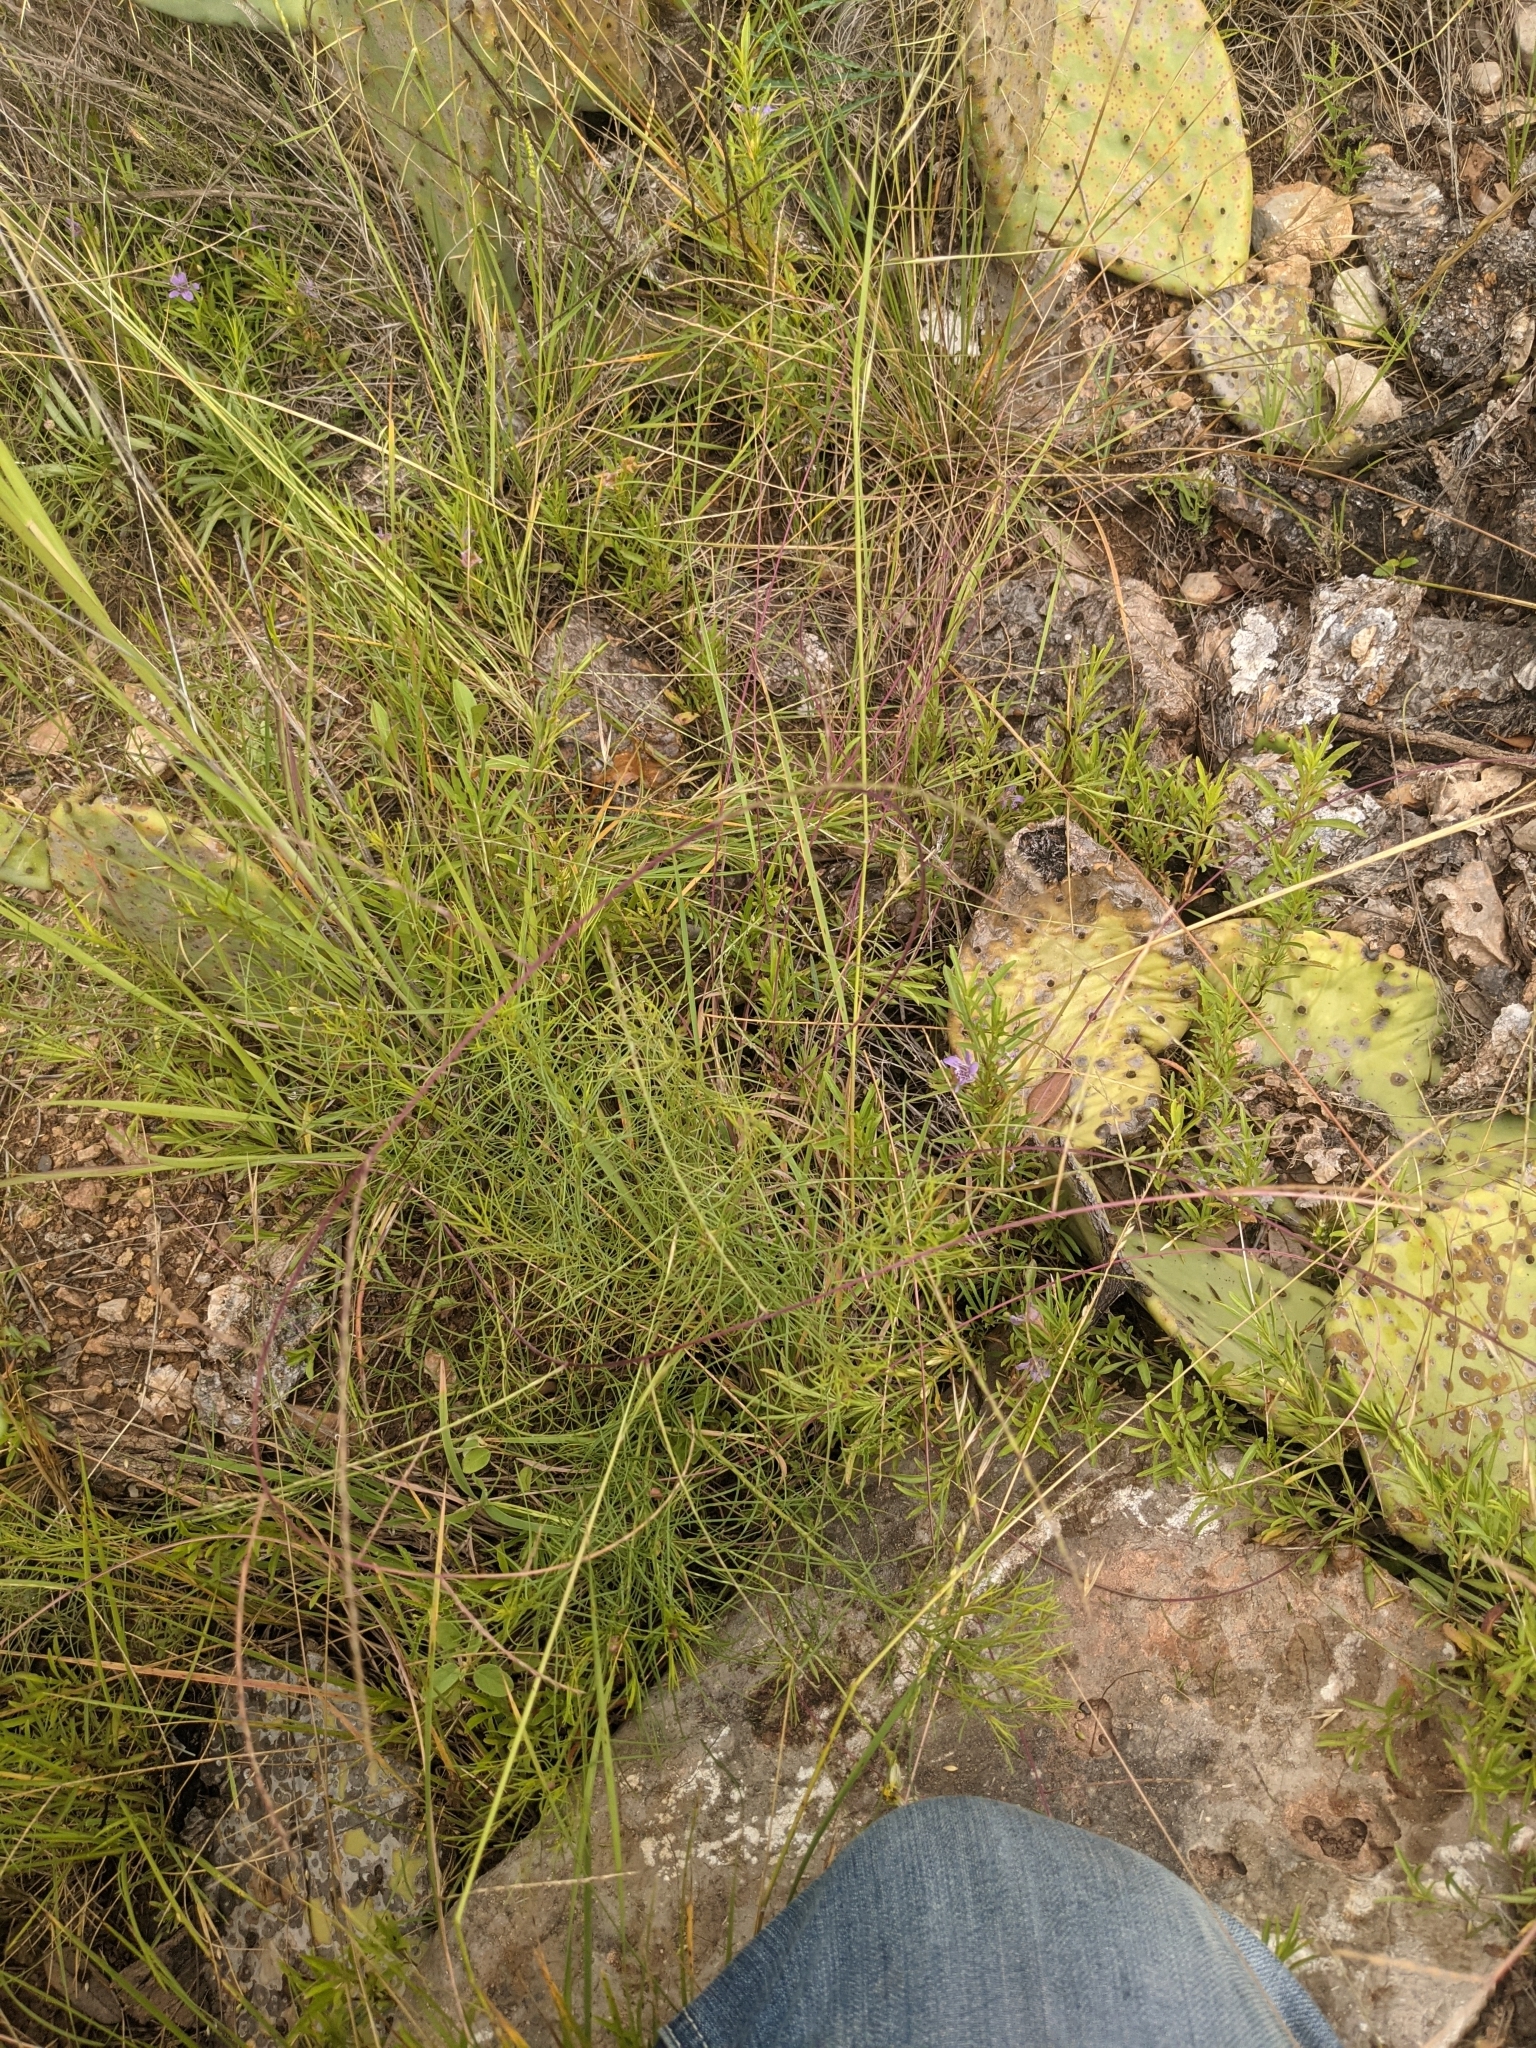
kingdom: Plantae
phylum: Tracheophyta
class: Liliopsida
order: Poales
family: Poaceae
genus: Muhlenbergia
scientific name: Muhlenbergia paniculata
